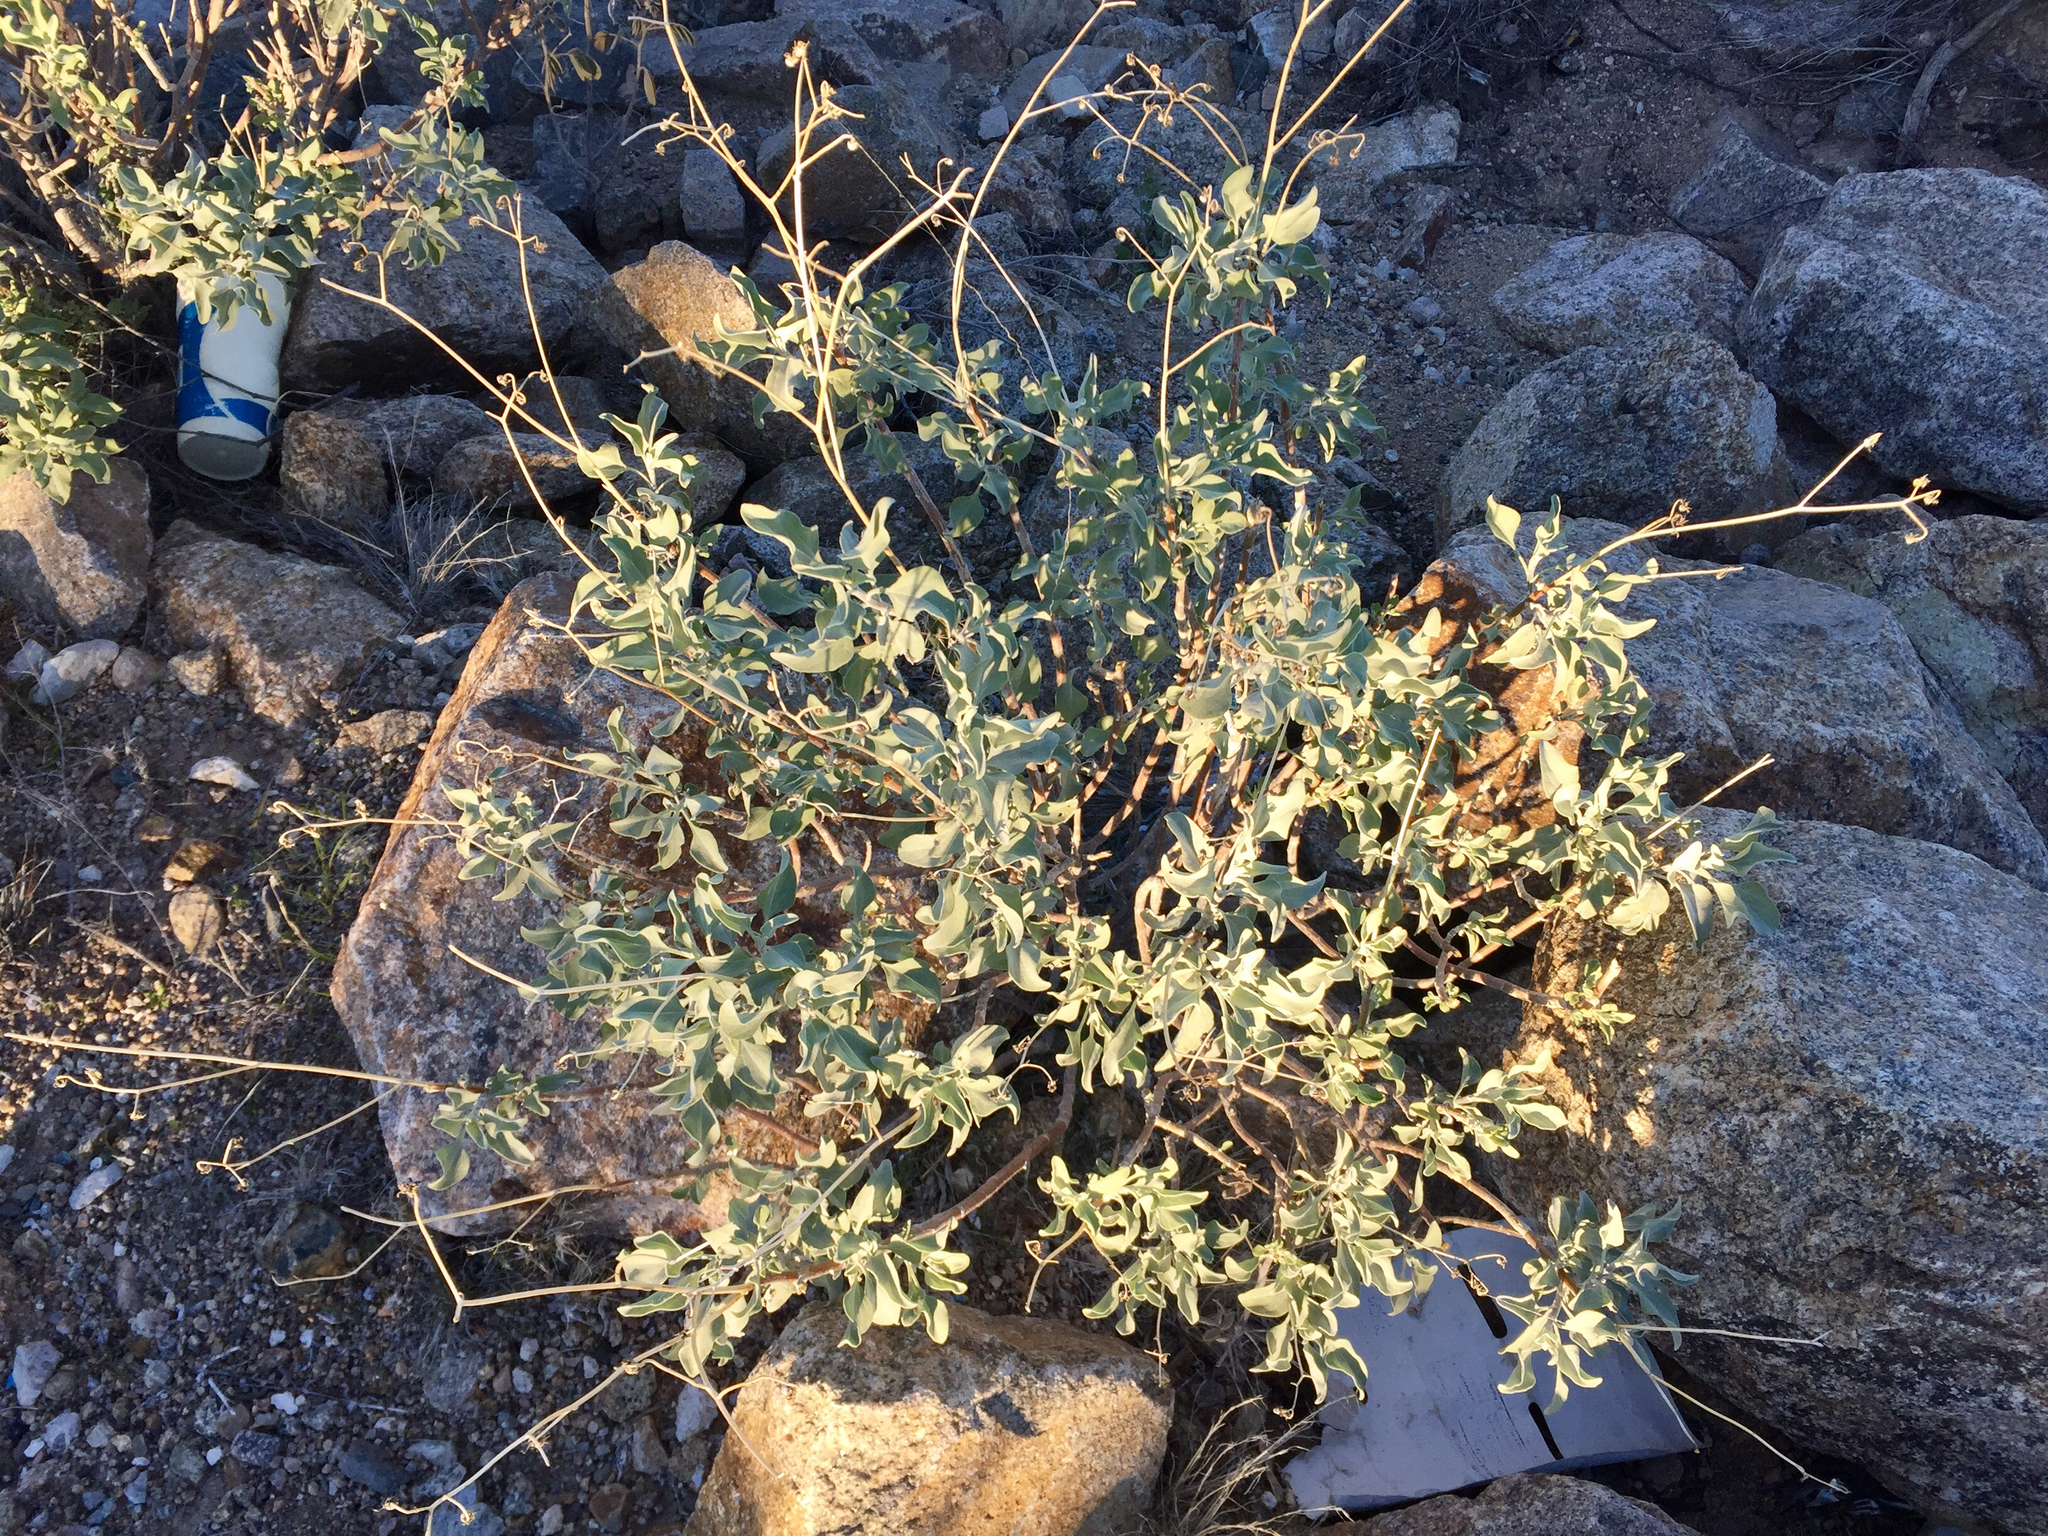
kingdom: Plantae
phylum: Tracheophyta
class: Magnoliopsida
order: Asterales
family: Asteraceae
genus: Encelia
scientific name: Encelia farinosa
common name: Brittlebush
